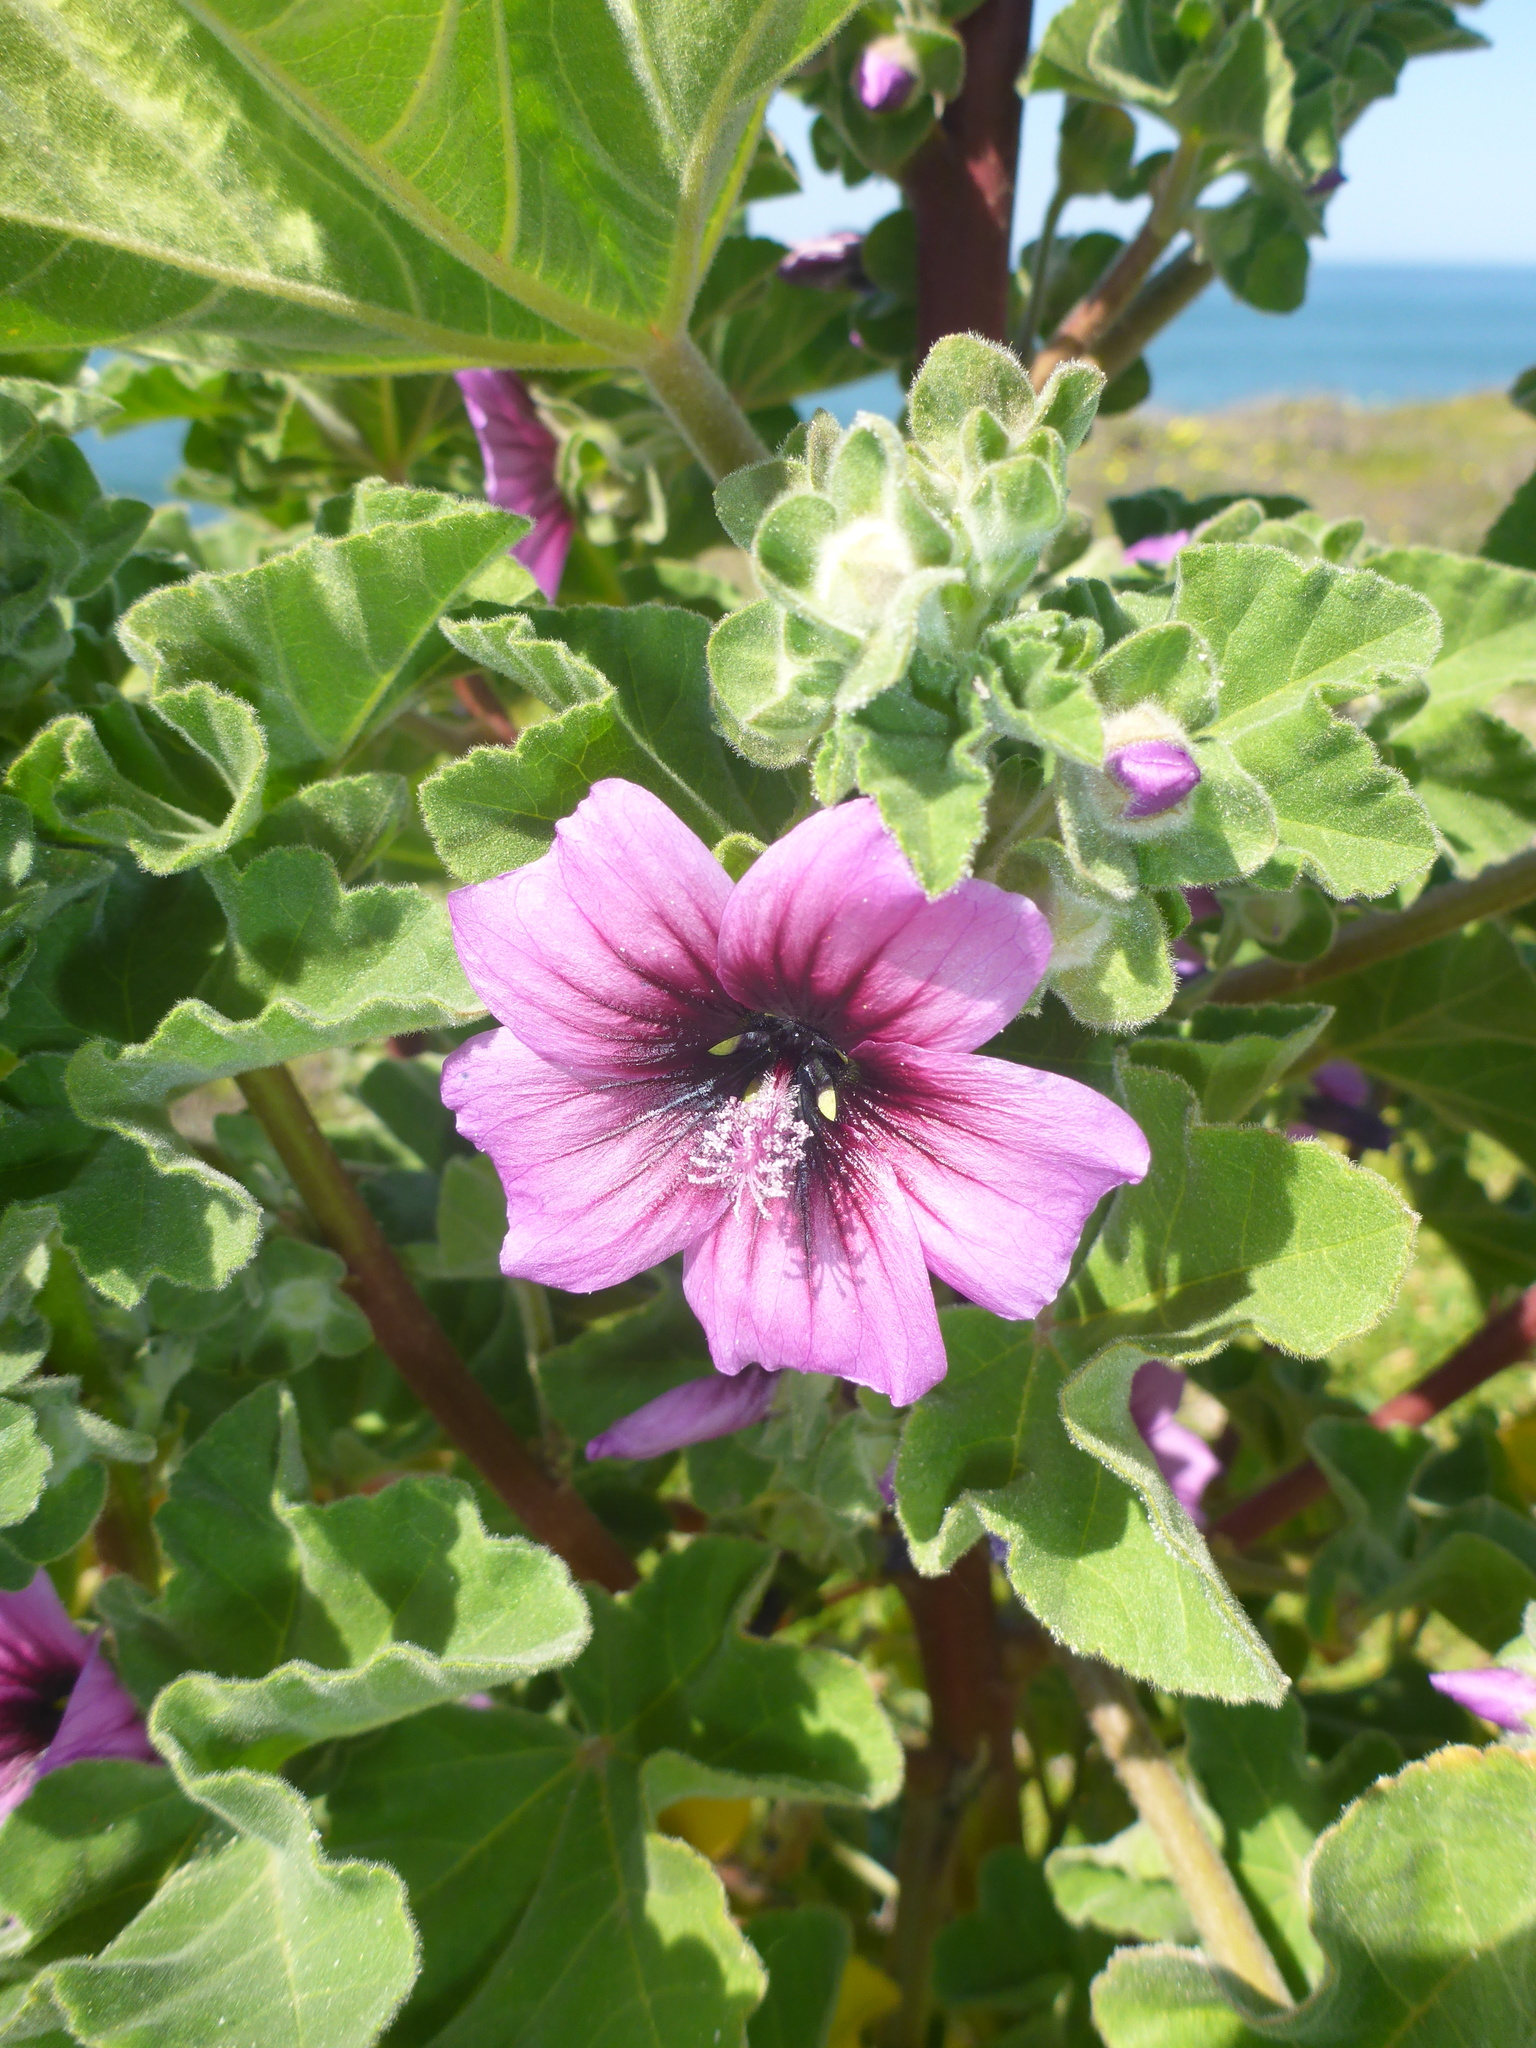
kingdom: Plantae
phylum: Tracheophyta
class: Magnoliopsida
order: Malvales
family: Malvaceae
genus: Malva
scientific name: Malva arborea
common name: Tree mallow
